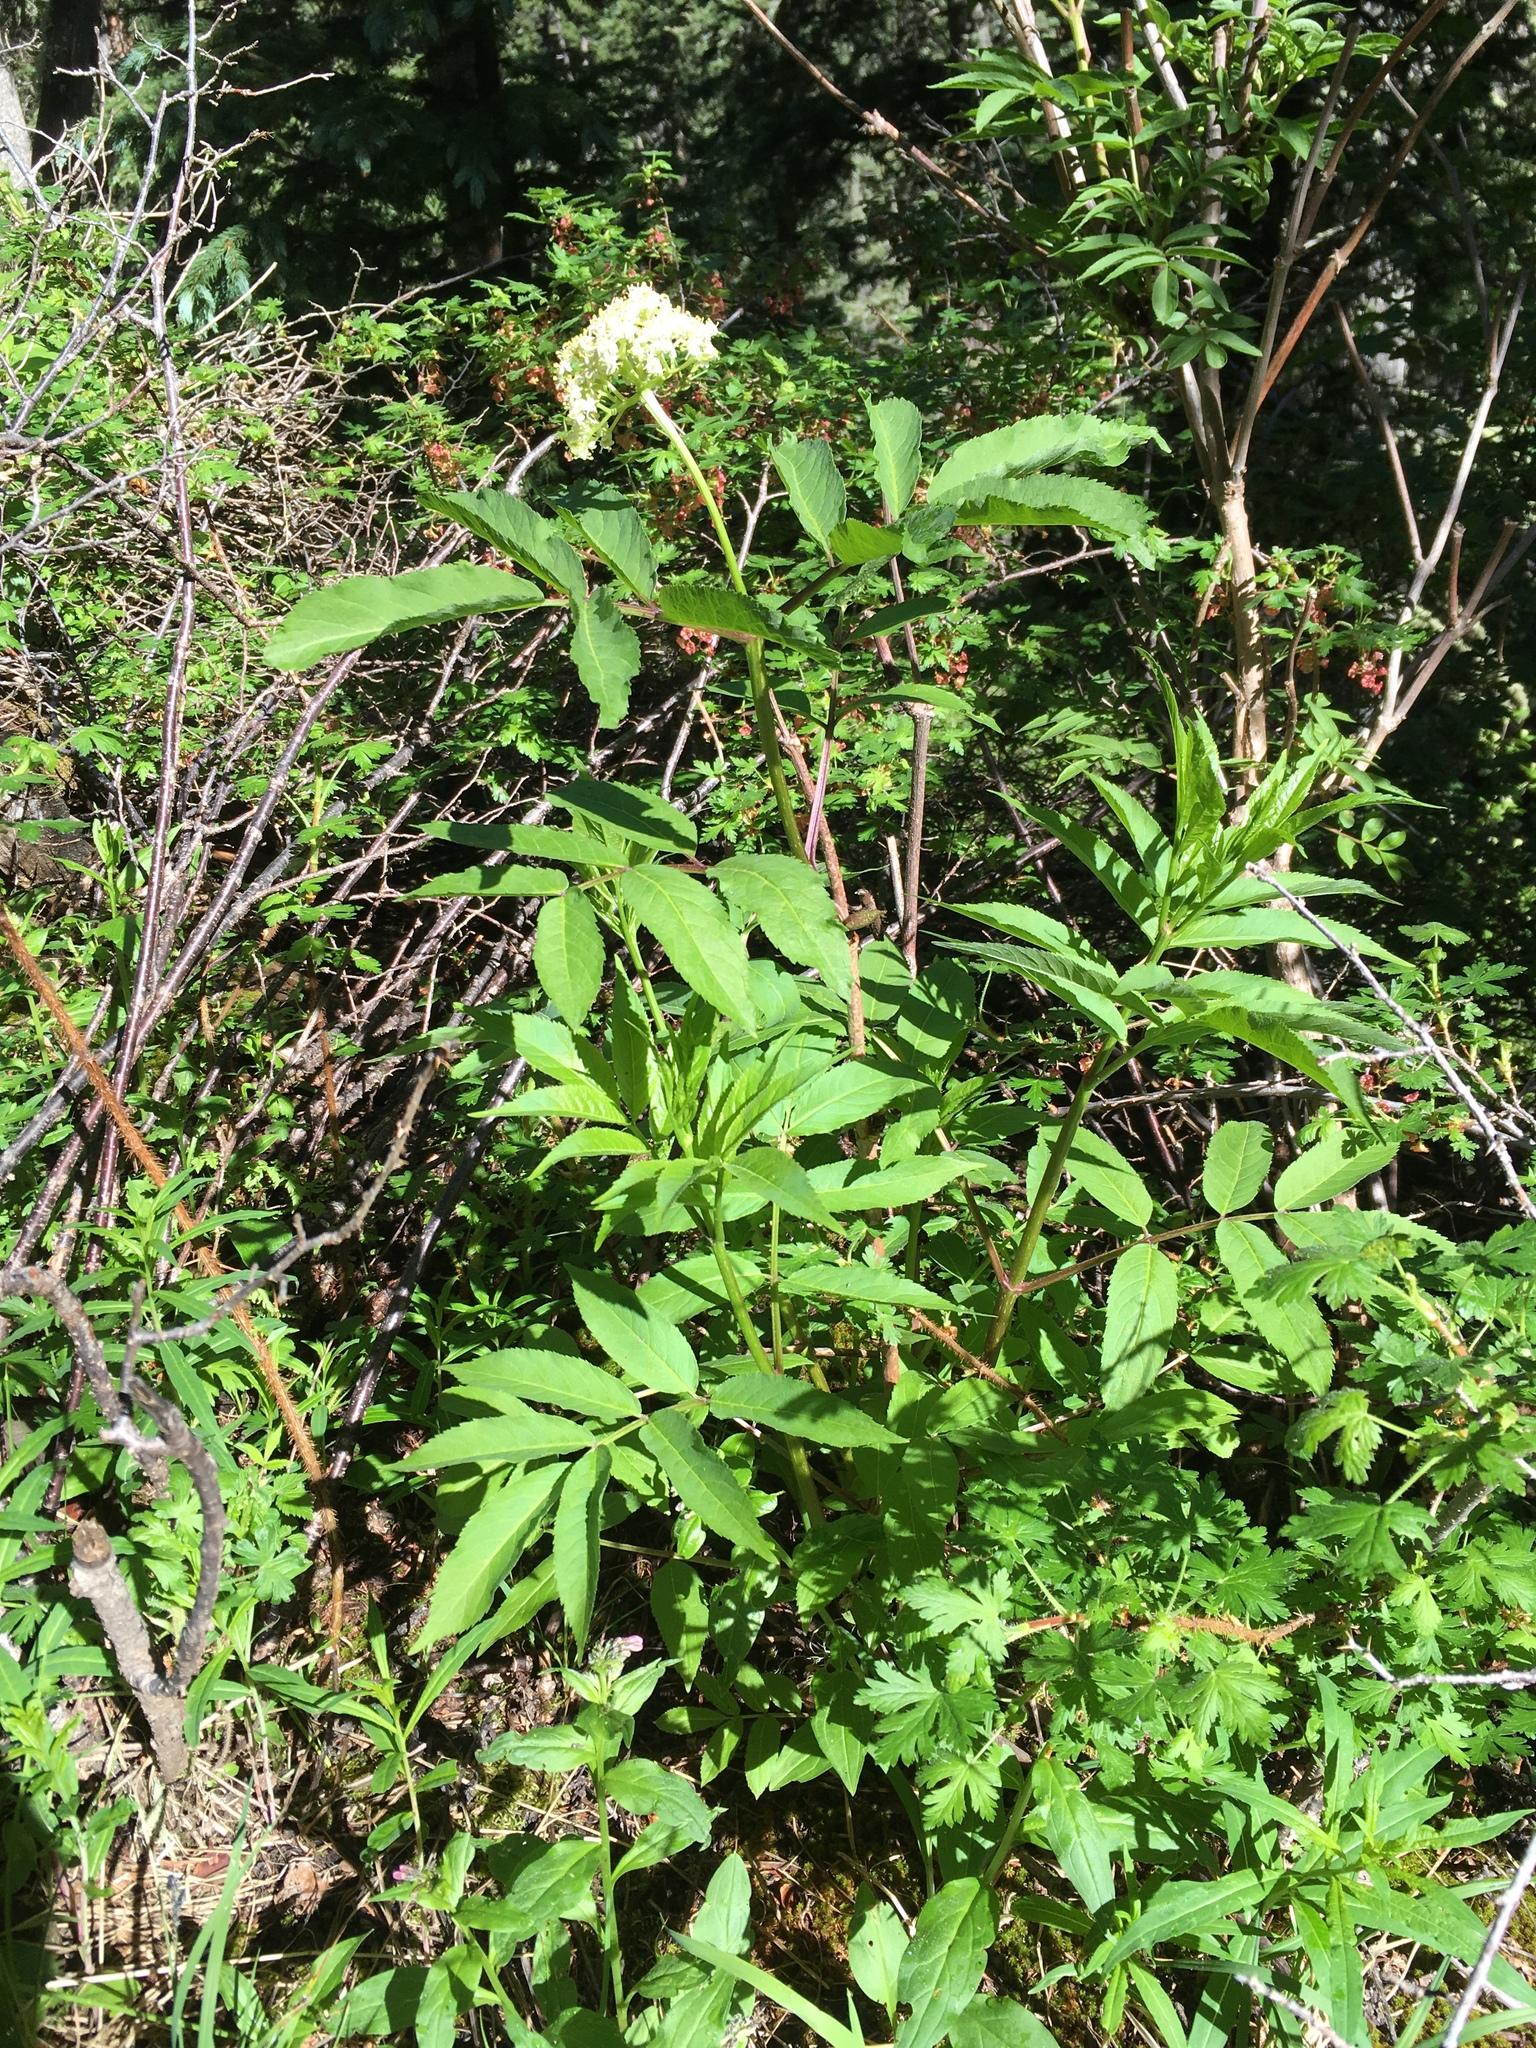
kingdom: Plantae
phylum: Tracheophyta
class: Magnoliopsida
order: Dipsacales
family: Viburnaceae
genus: Sambucus
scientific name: Sambucus racemosa
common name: Red-berried elder
